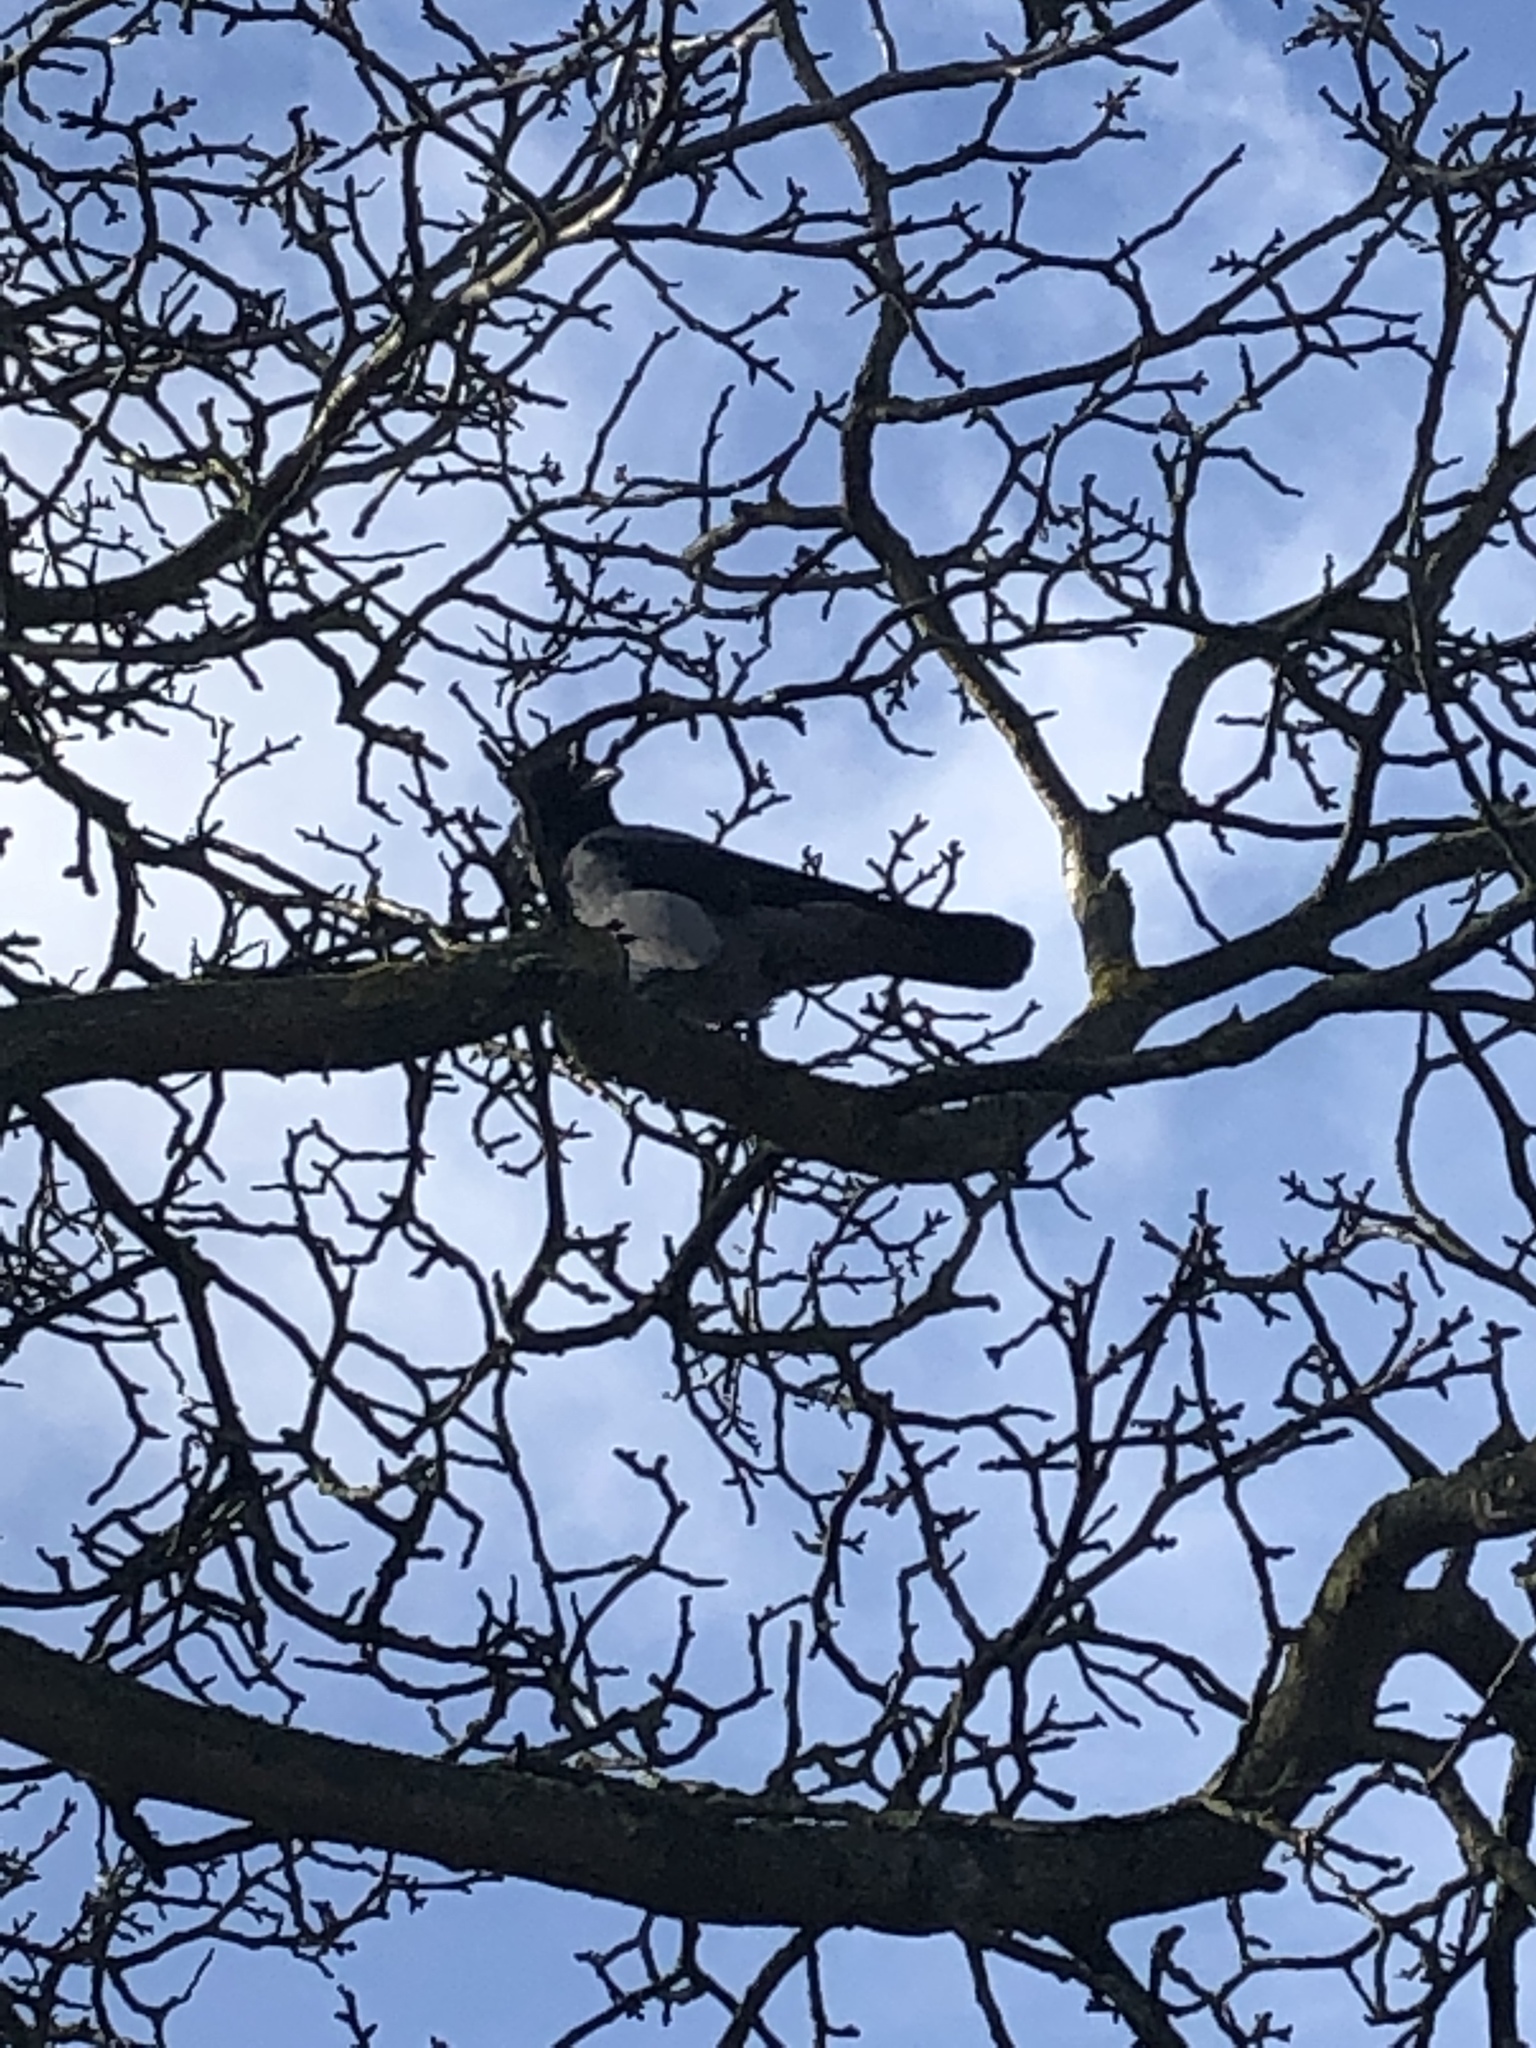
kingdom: Animalia
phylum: Chordata
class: Aves
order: Passeriformes
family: Corvidae
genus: Corvus
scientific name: Corvus cornix
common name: Hooded crow
